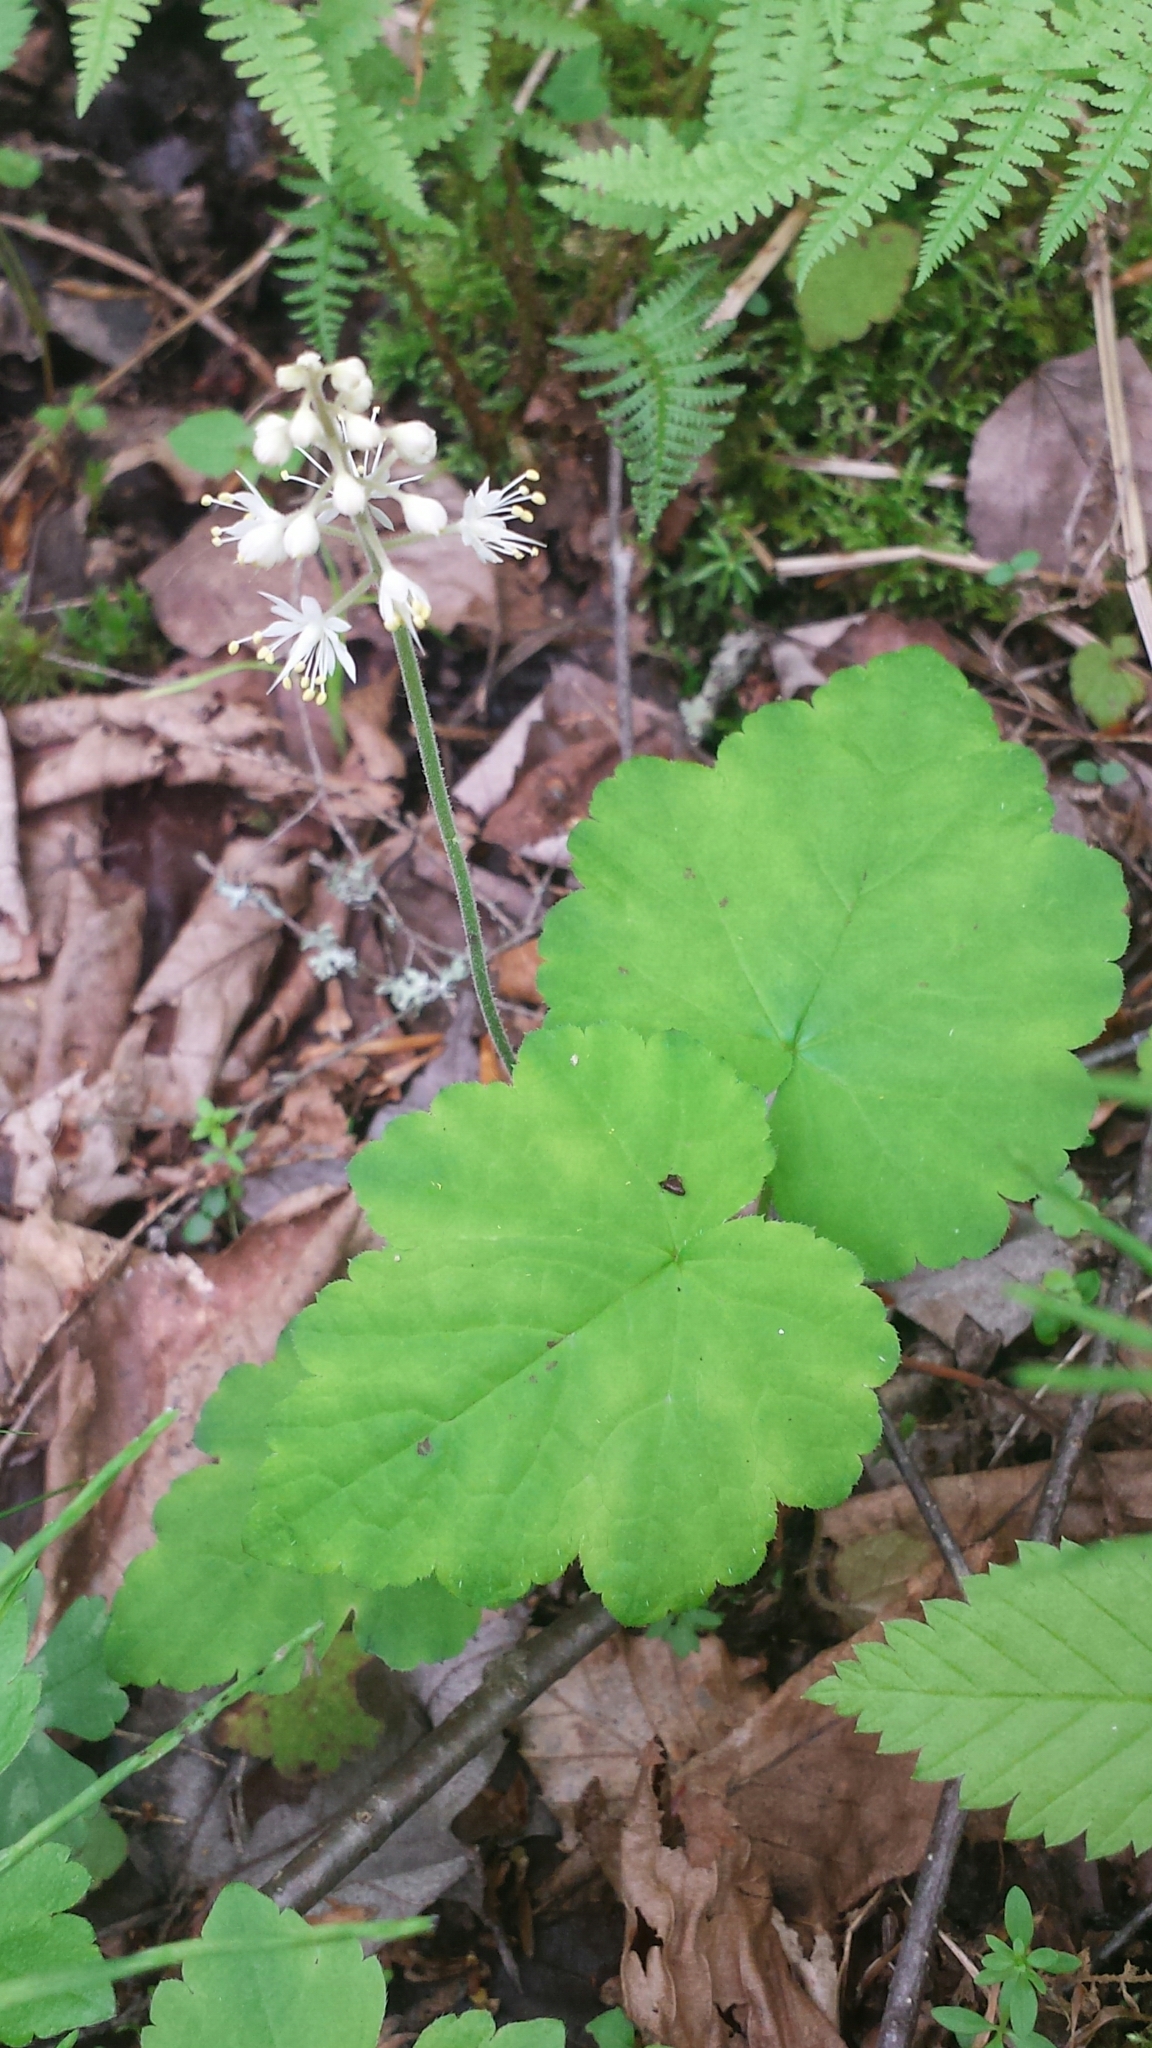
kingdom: Plantae
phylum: Tracheophyta
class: Magnoliopsida
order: Saxifragales
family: Saxifragaceae
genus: Tiarella
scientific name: Tiarella stolonifera
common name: Stoloniferous foamflower
